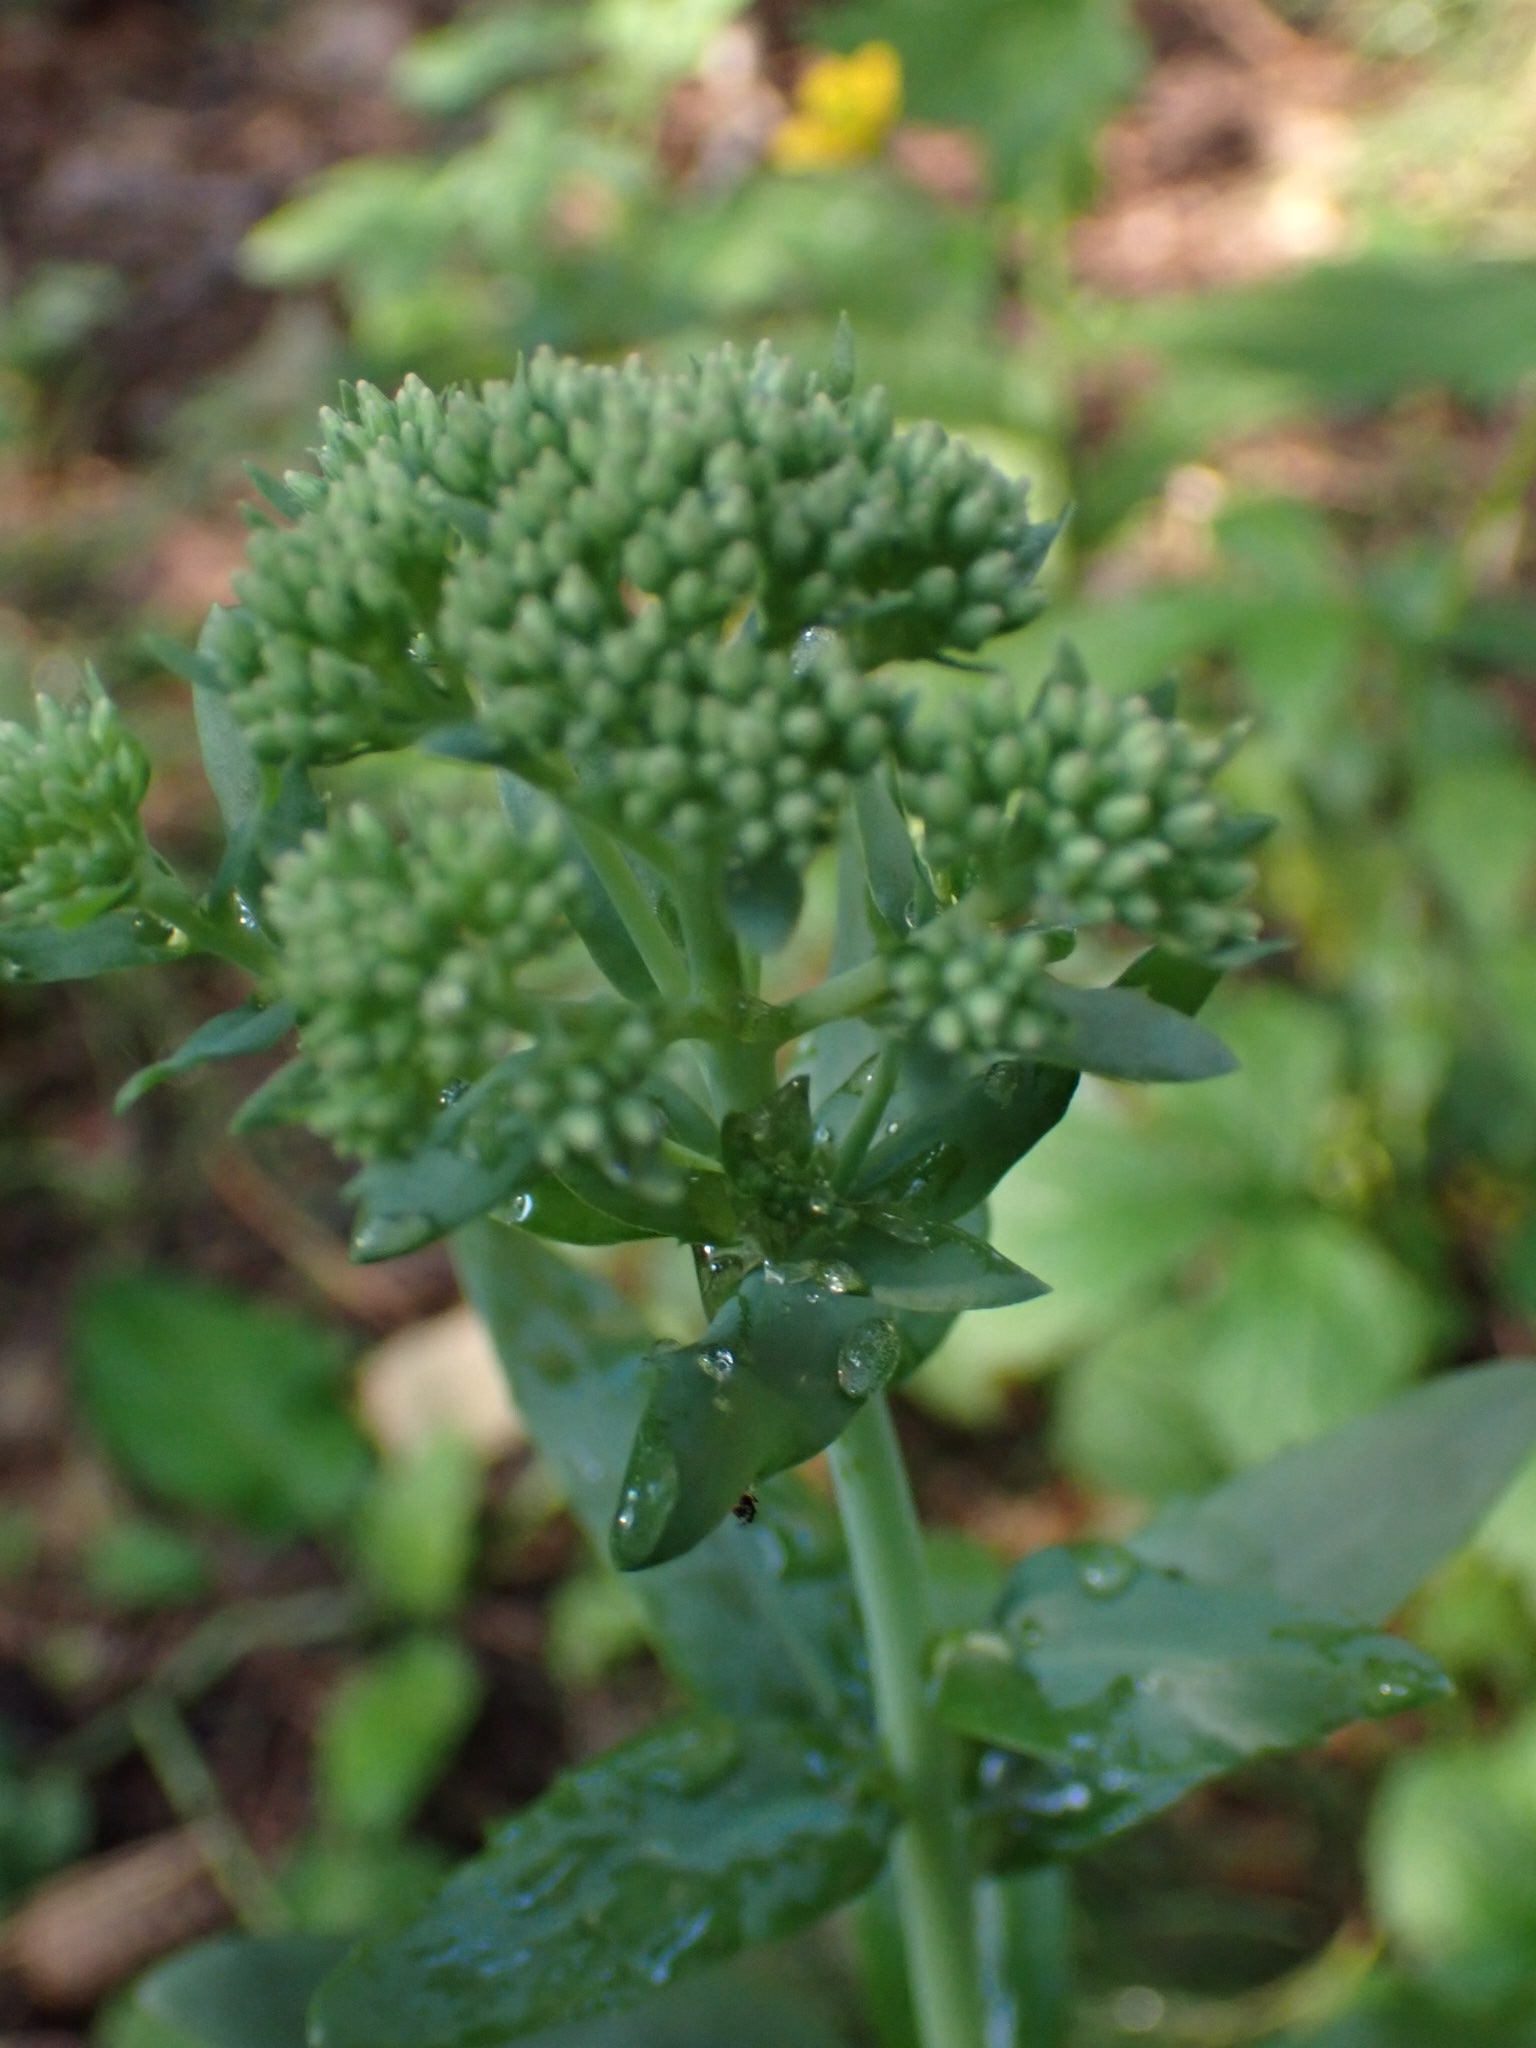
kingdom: Plantae
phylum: Tracheophyta
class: Magnoliopsida
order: Saxifragales
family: Crassulaceae
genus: Hylotelephium
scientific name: Hylotelephium telephium
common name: Live-forever
